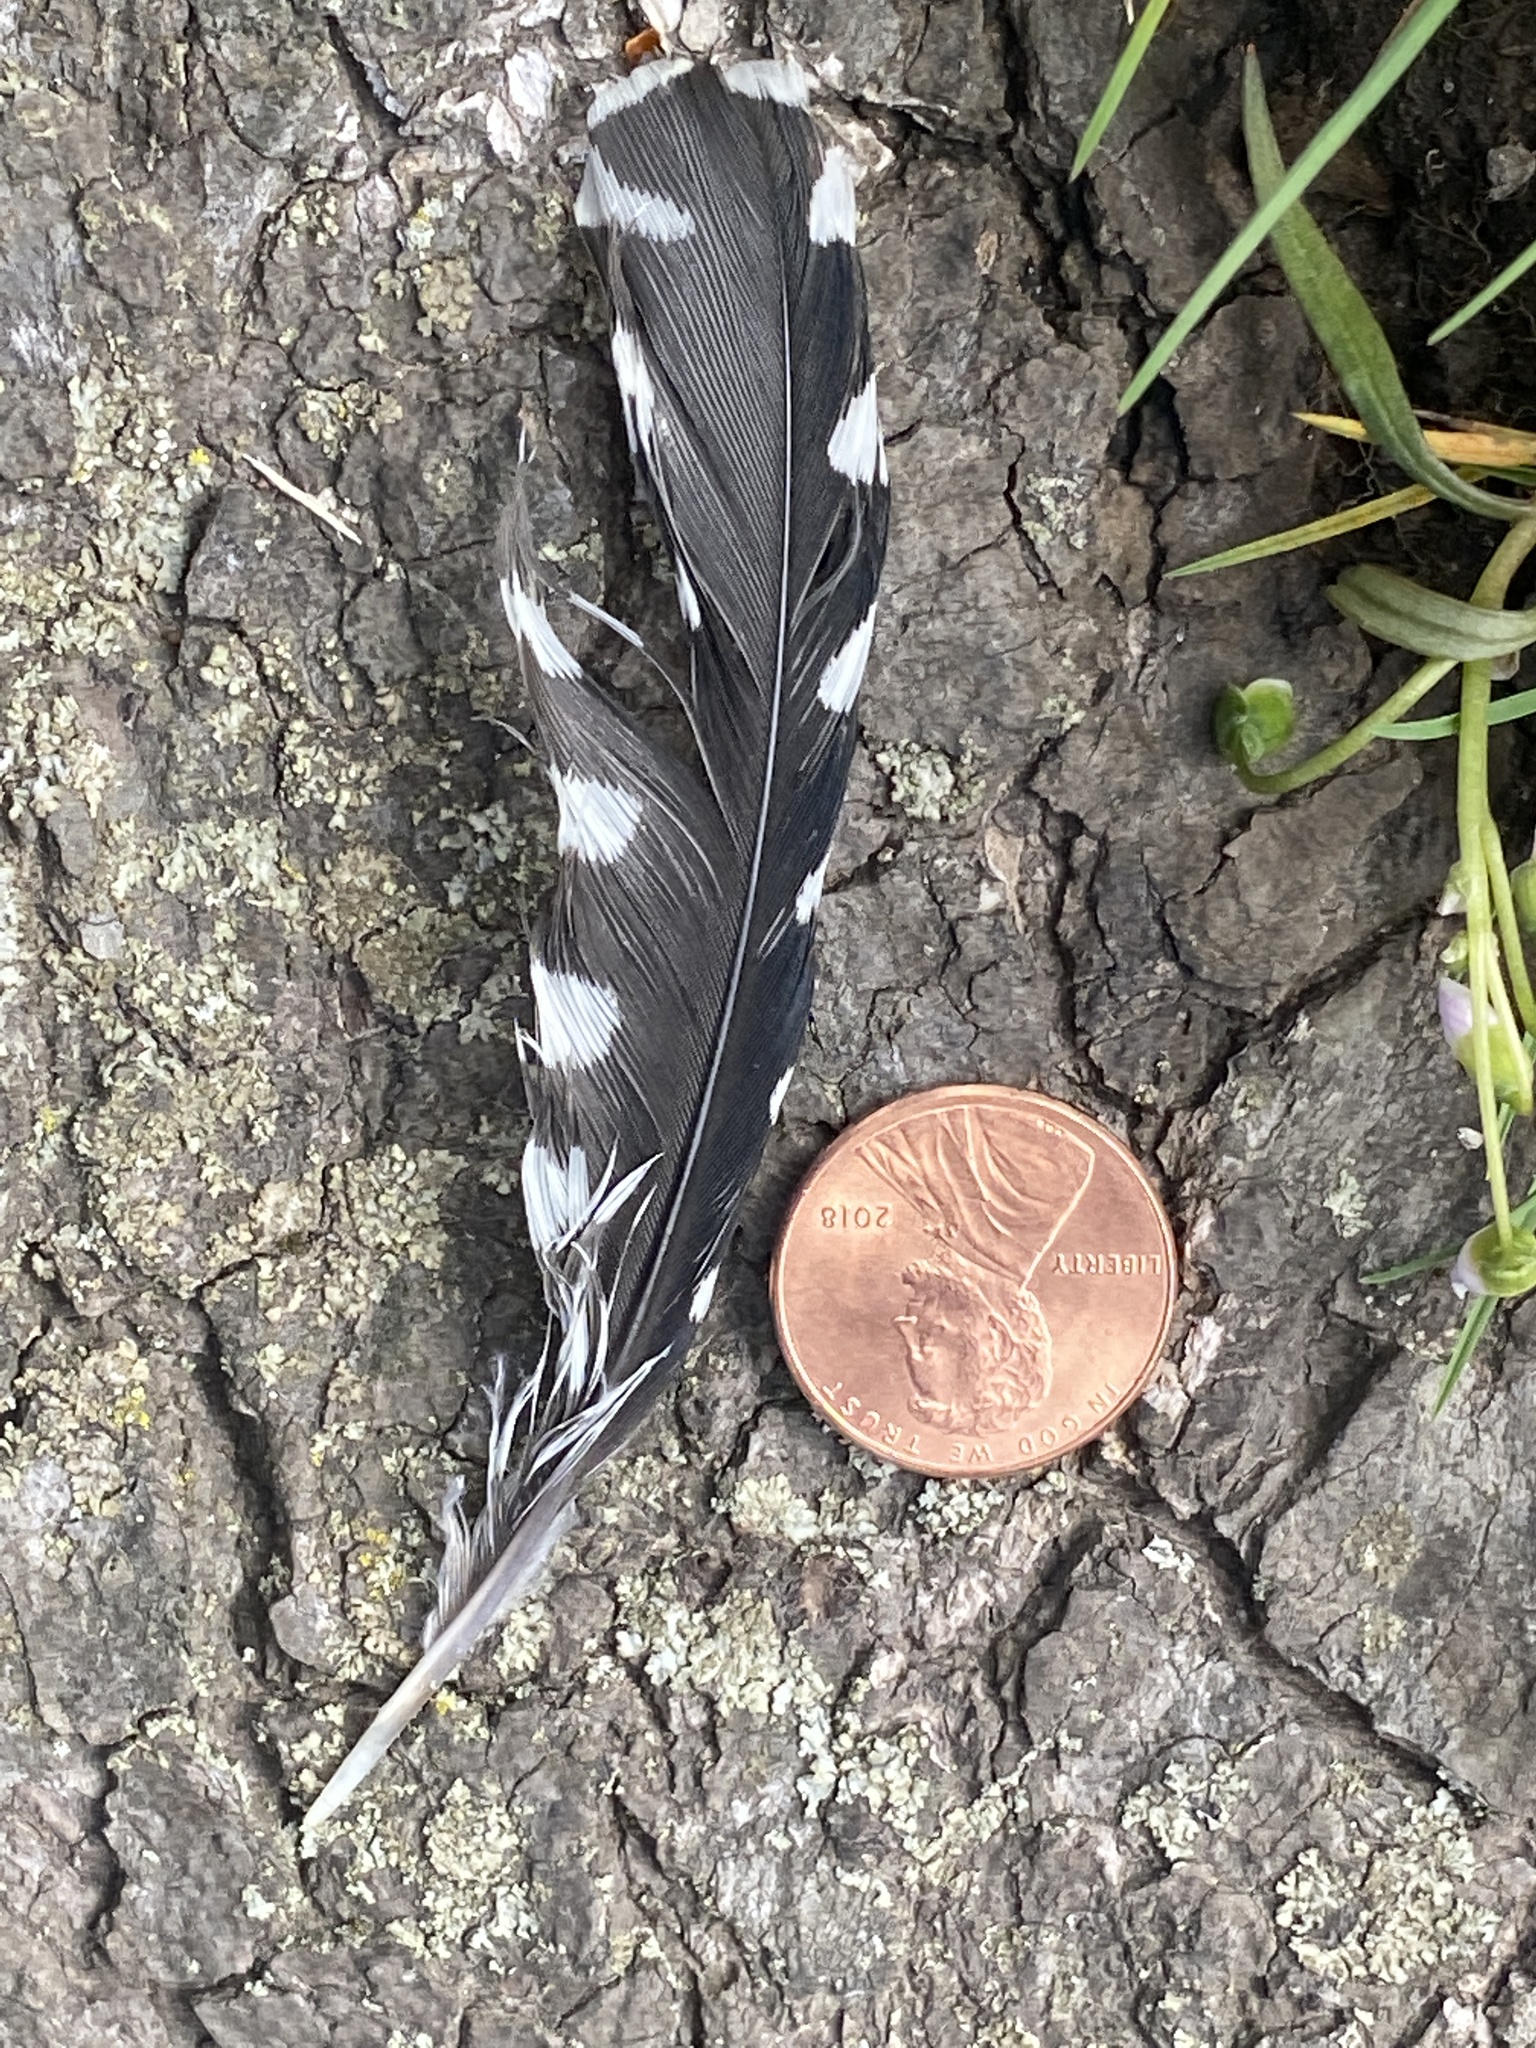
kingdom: Animalia
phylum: Chordata
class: Aves
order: Piciformes
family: Picidae
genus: Melanerpes
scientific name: Melanerpes carolinus
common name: Red-bellied woodpecker
